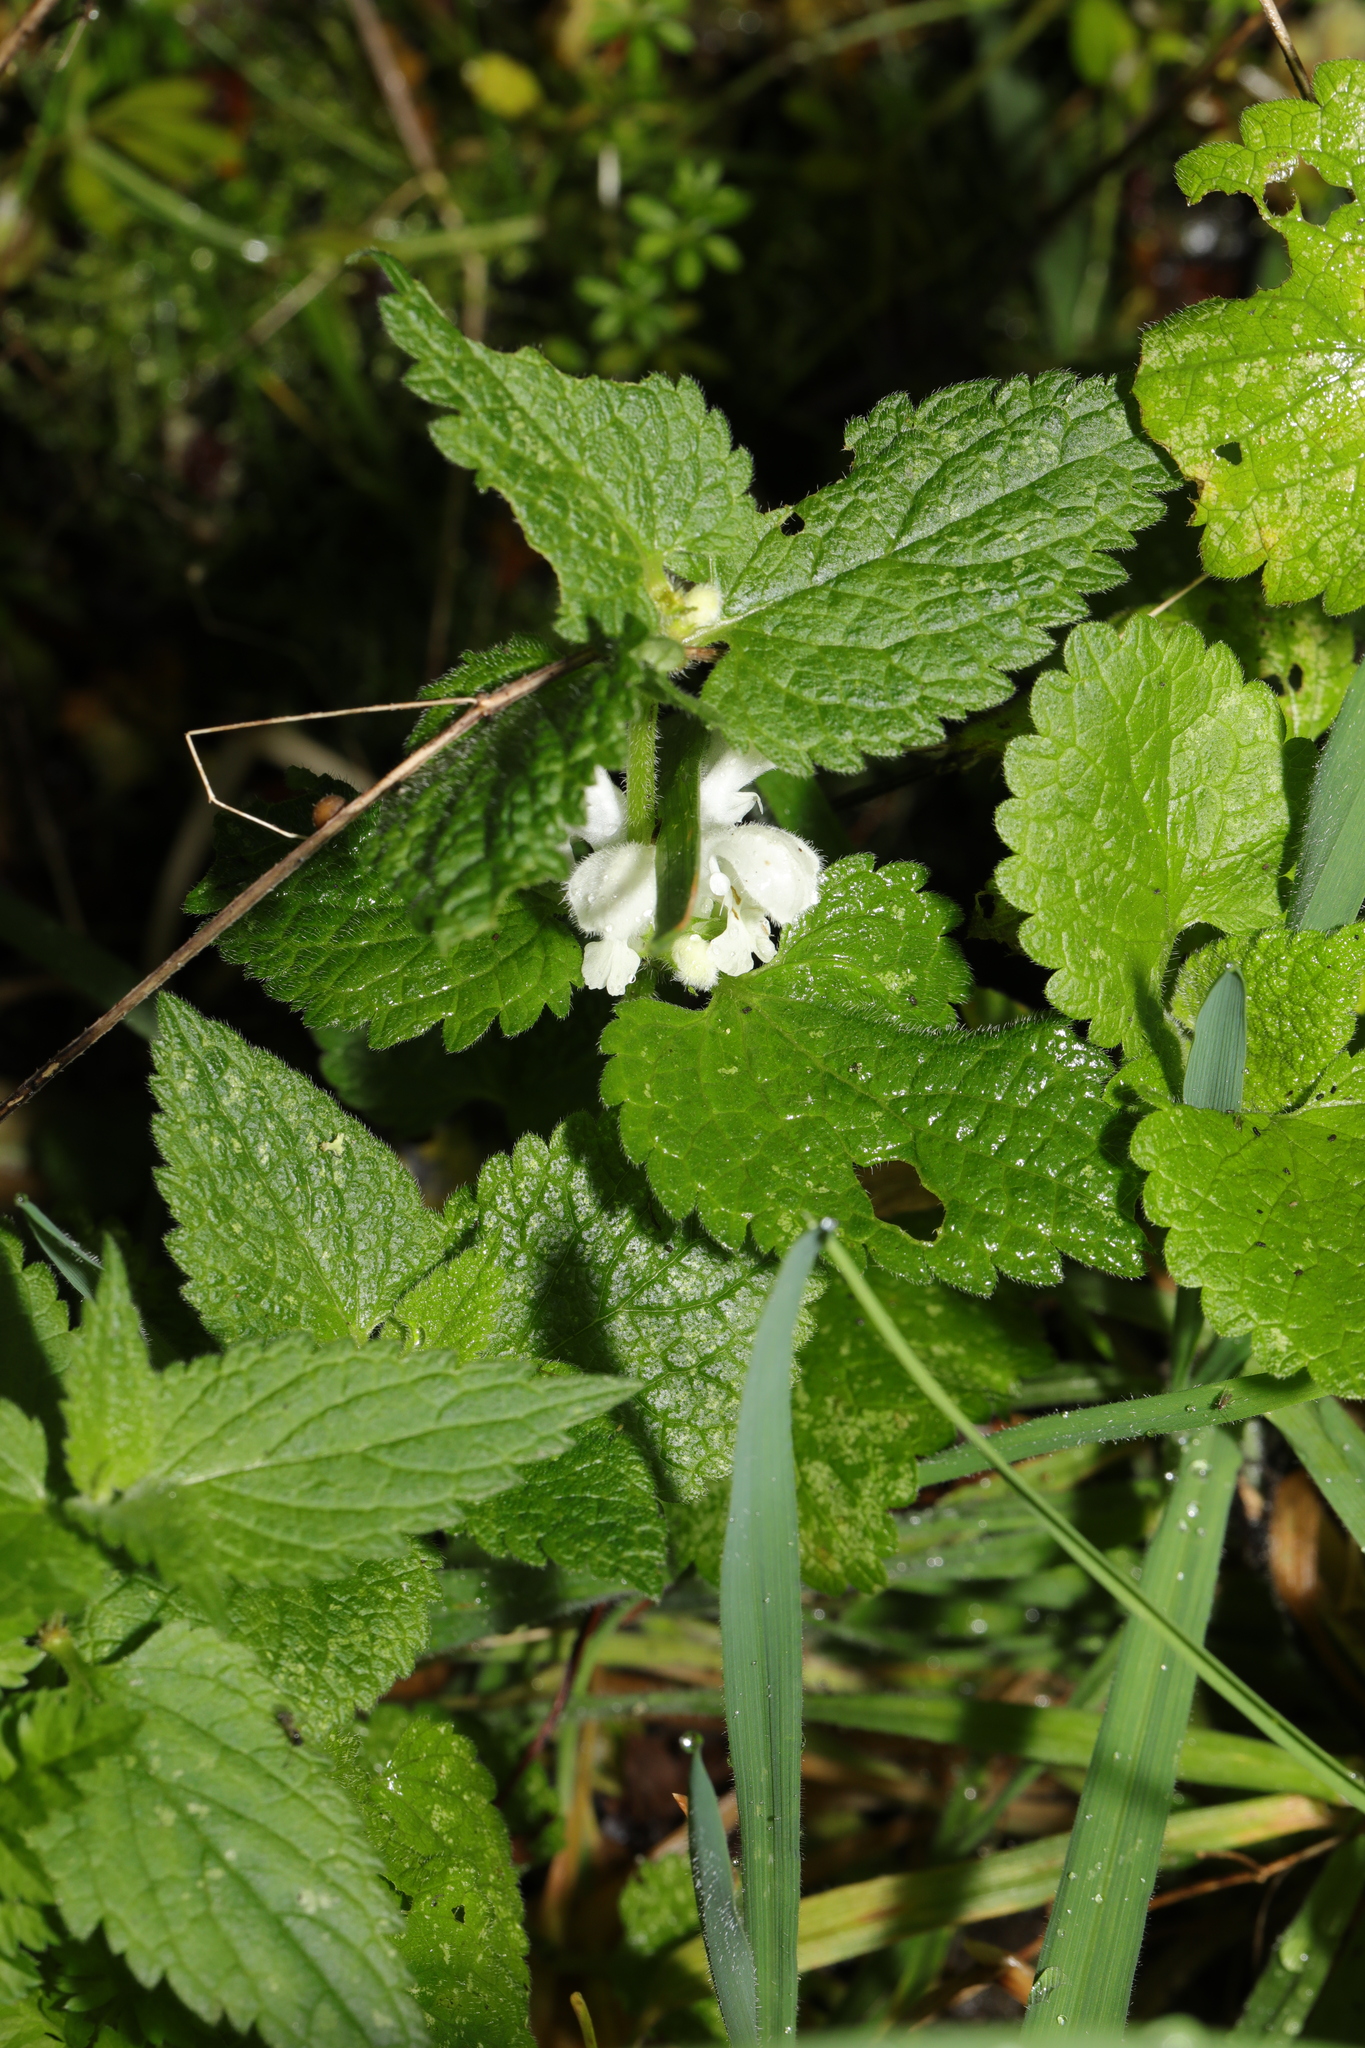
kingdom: Plantae
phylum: Tracheophyta
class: Magnoliopsida
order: Lamiales
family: Lamiaceae
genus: Lamium
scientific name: Lamium album
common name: White dead-nettle
